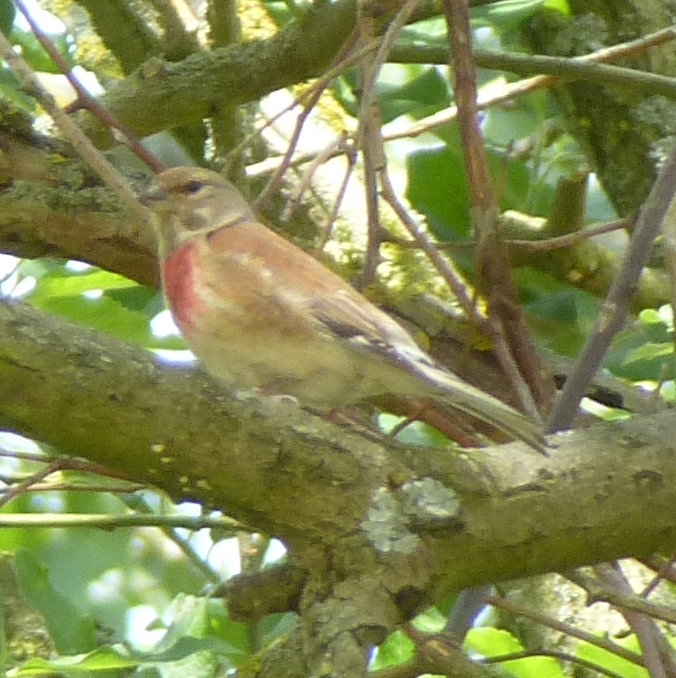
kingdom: Animalia
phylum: Chordata
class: Aves
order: Passeriformes
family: Fringillidae
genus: Linaria
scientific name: Linaria cannabina
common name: Common linnet
